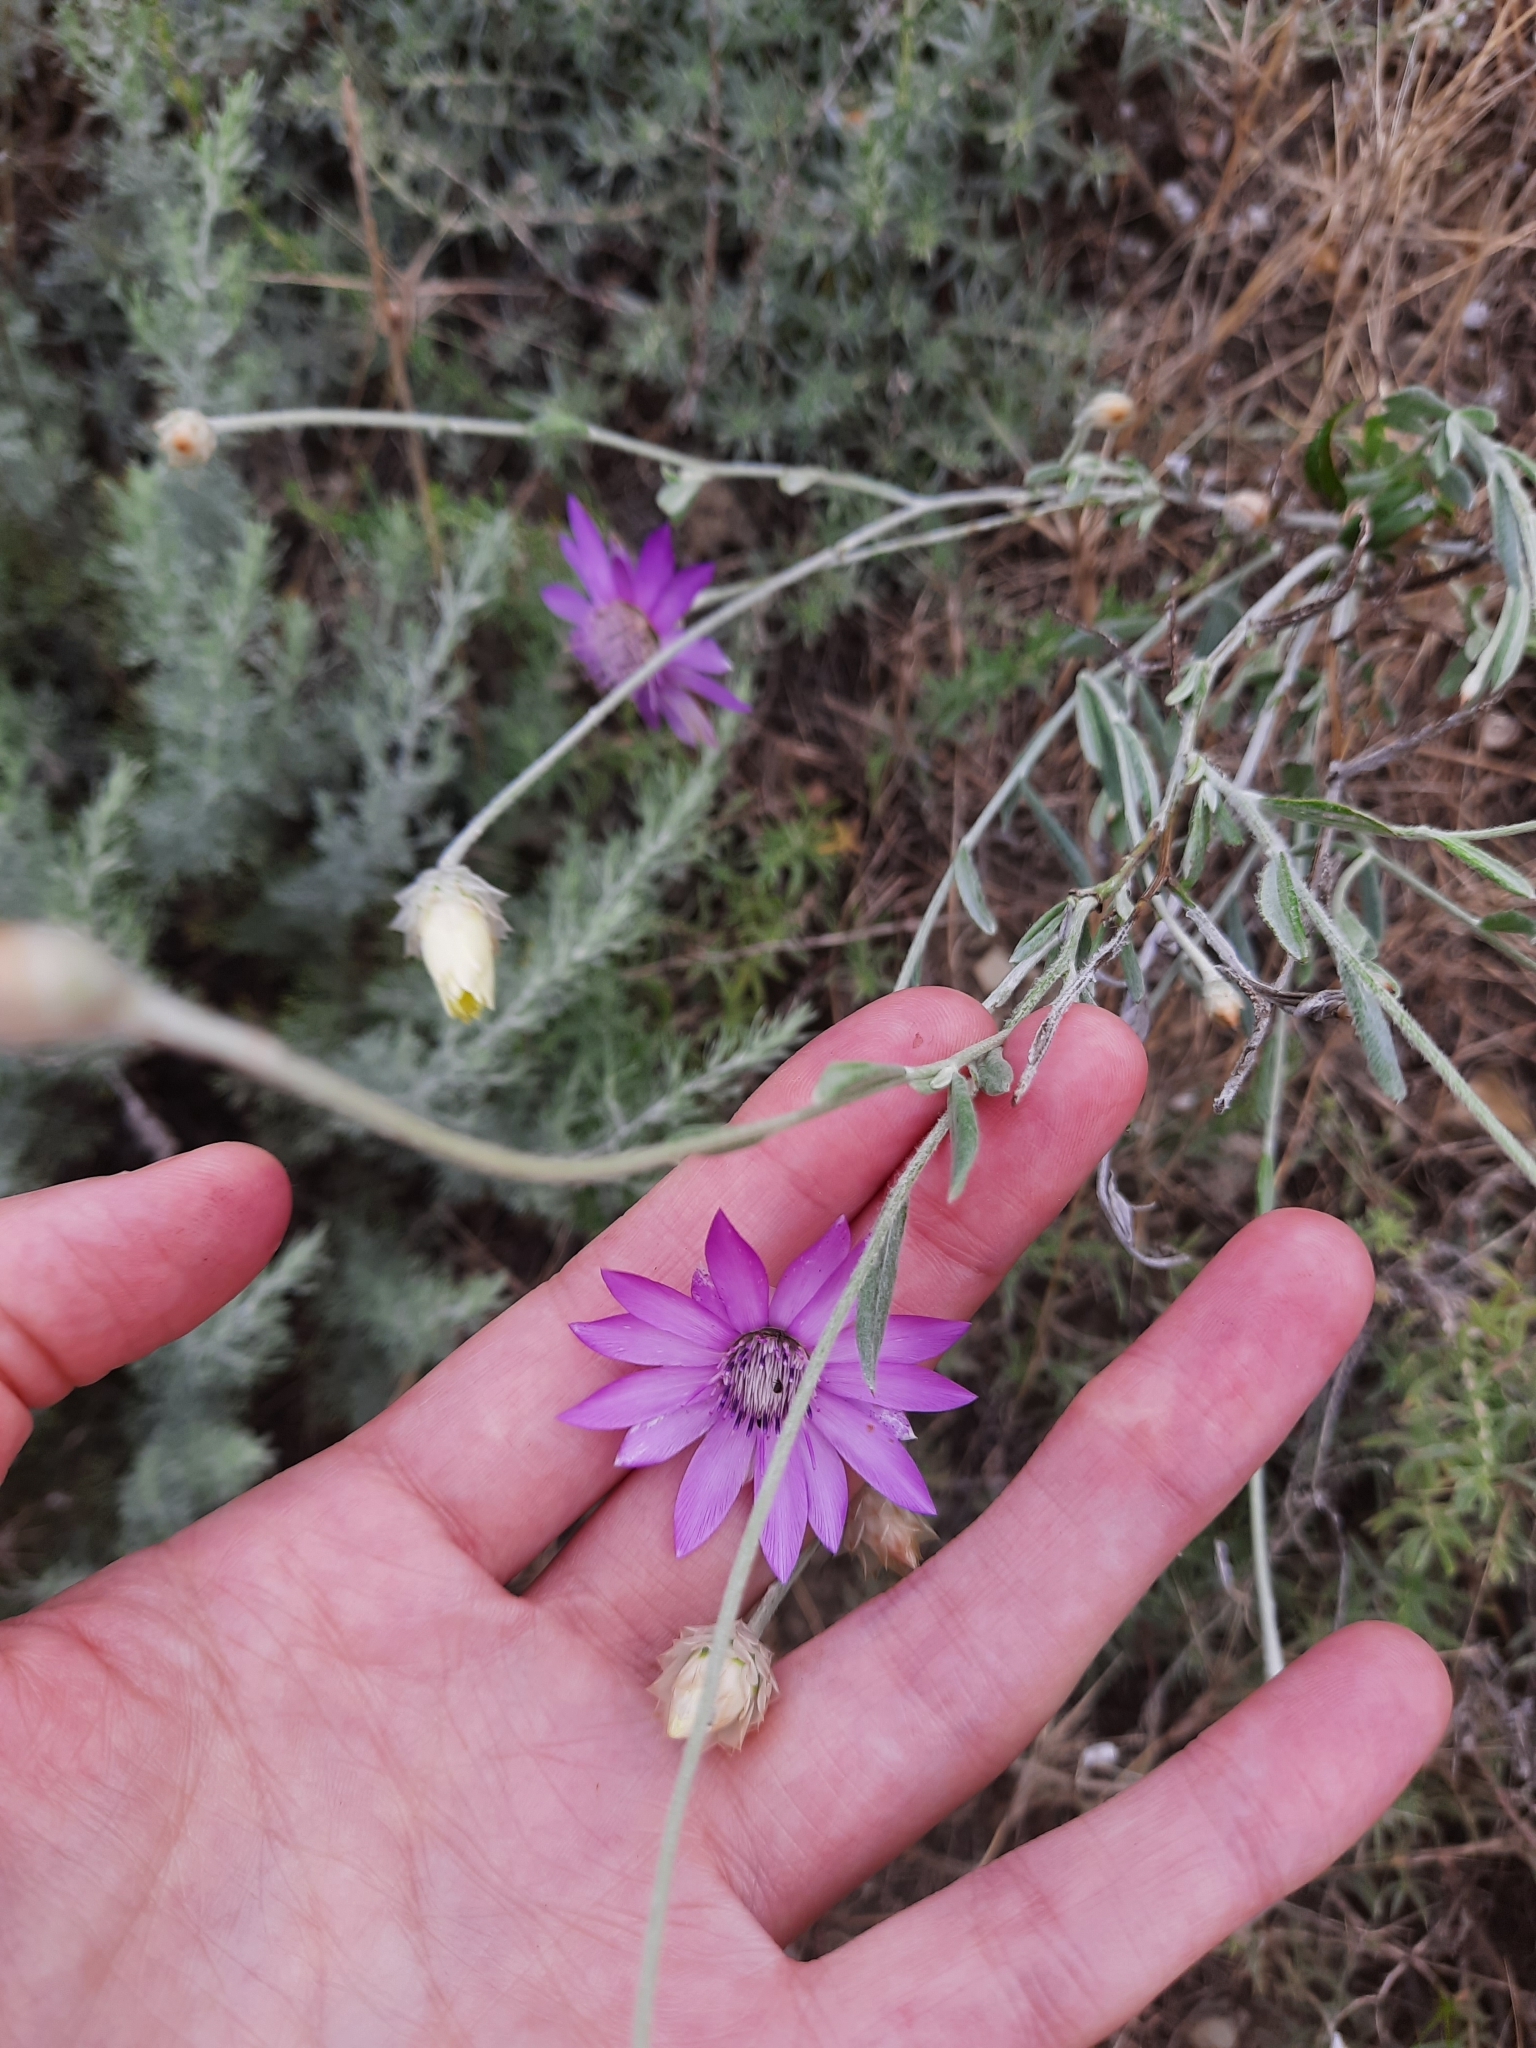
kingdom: Plantae
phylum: Tracheophyta
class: Magnoliopsida
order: Asterales
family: Asteraceae
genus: Xeranthemum
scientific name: Xeranthemum annuum
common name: Immortelle
